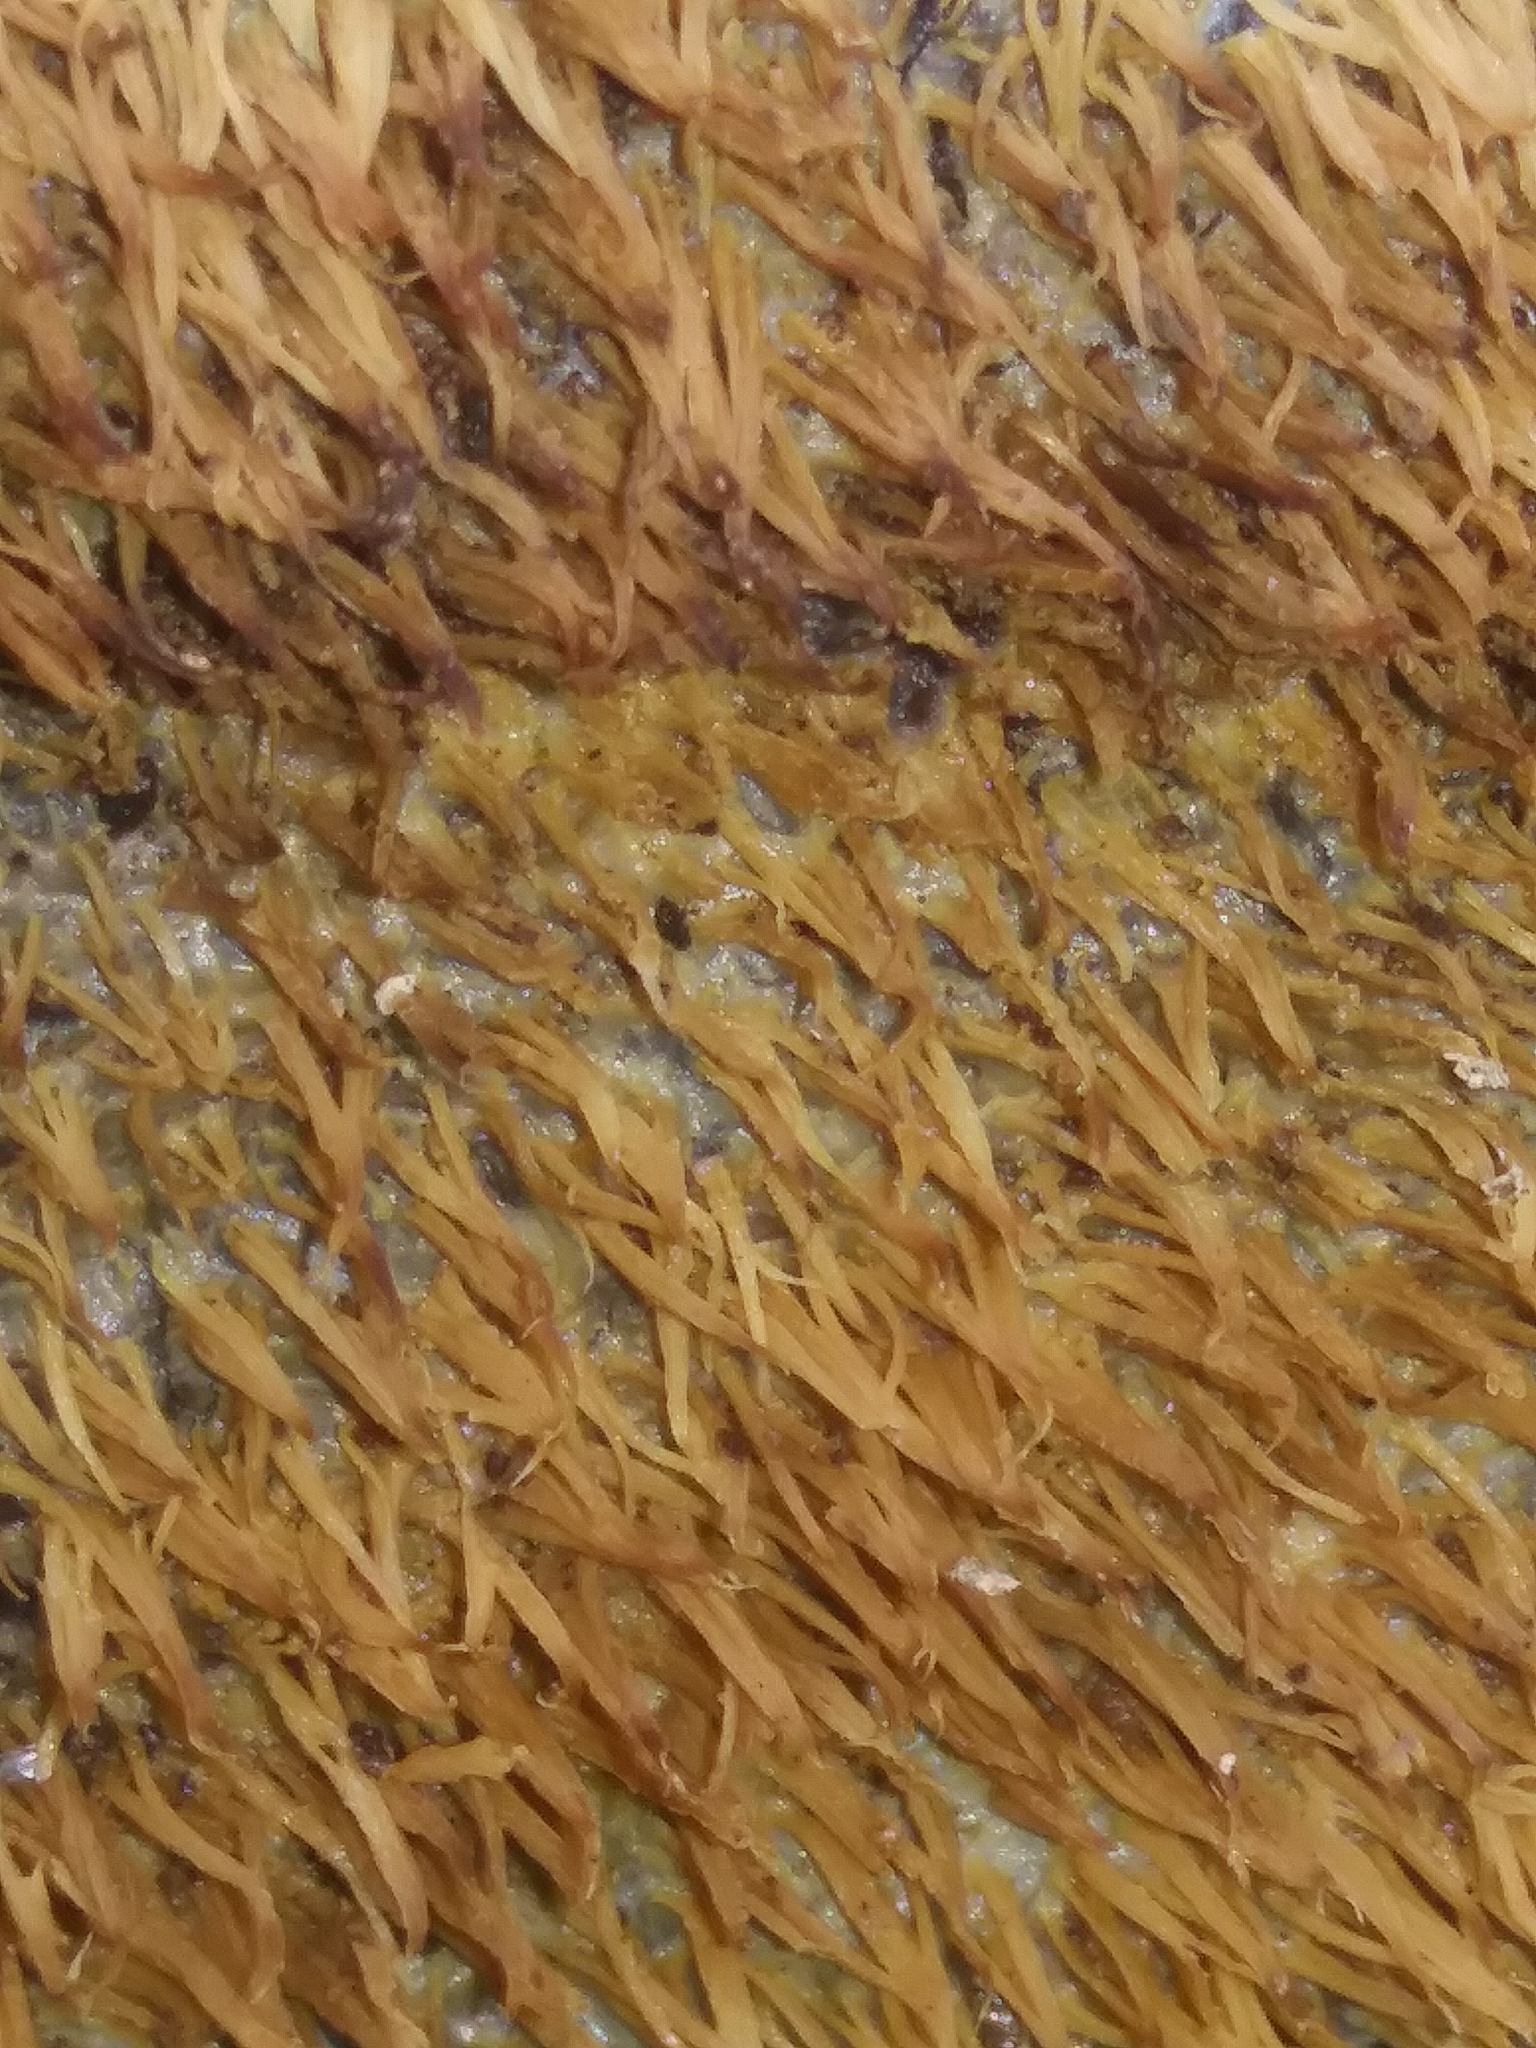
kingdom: Fungi
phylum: Basidiomycota
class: Agaricomycetes
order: Agaricales
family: Radulomycetaceae
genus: Radulomyces
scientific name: Radulomyces copelandii
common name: Asian beauty
